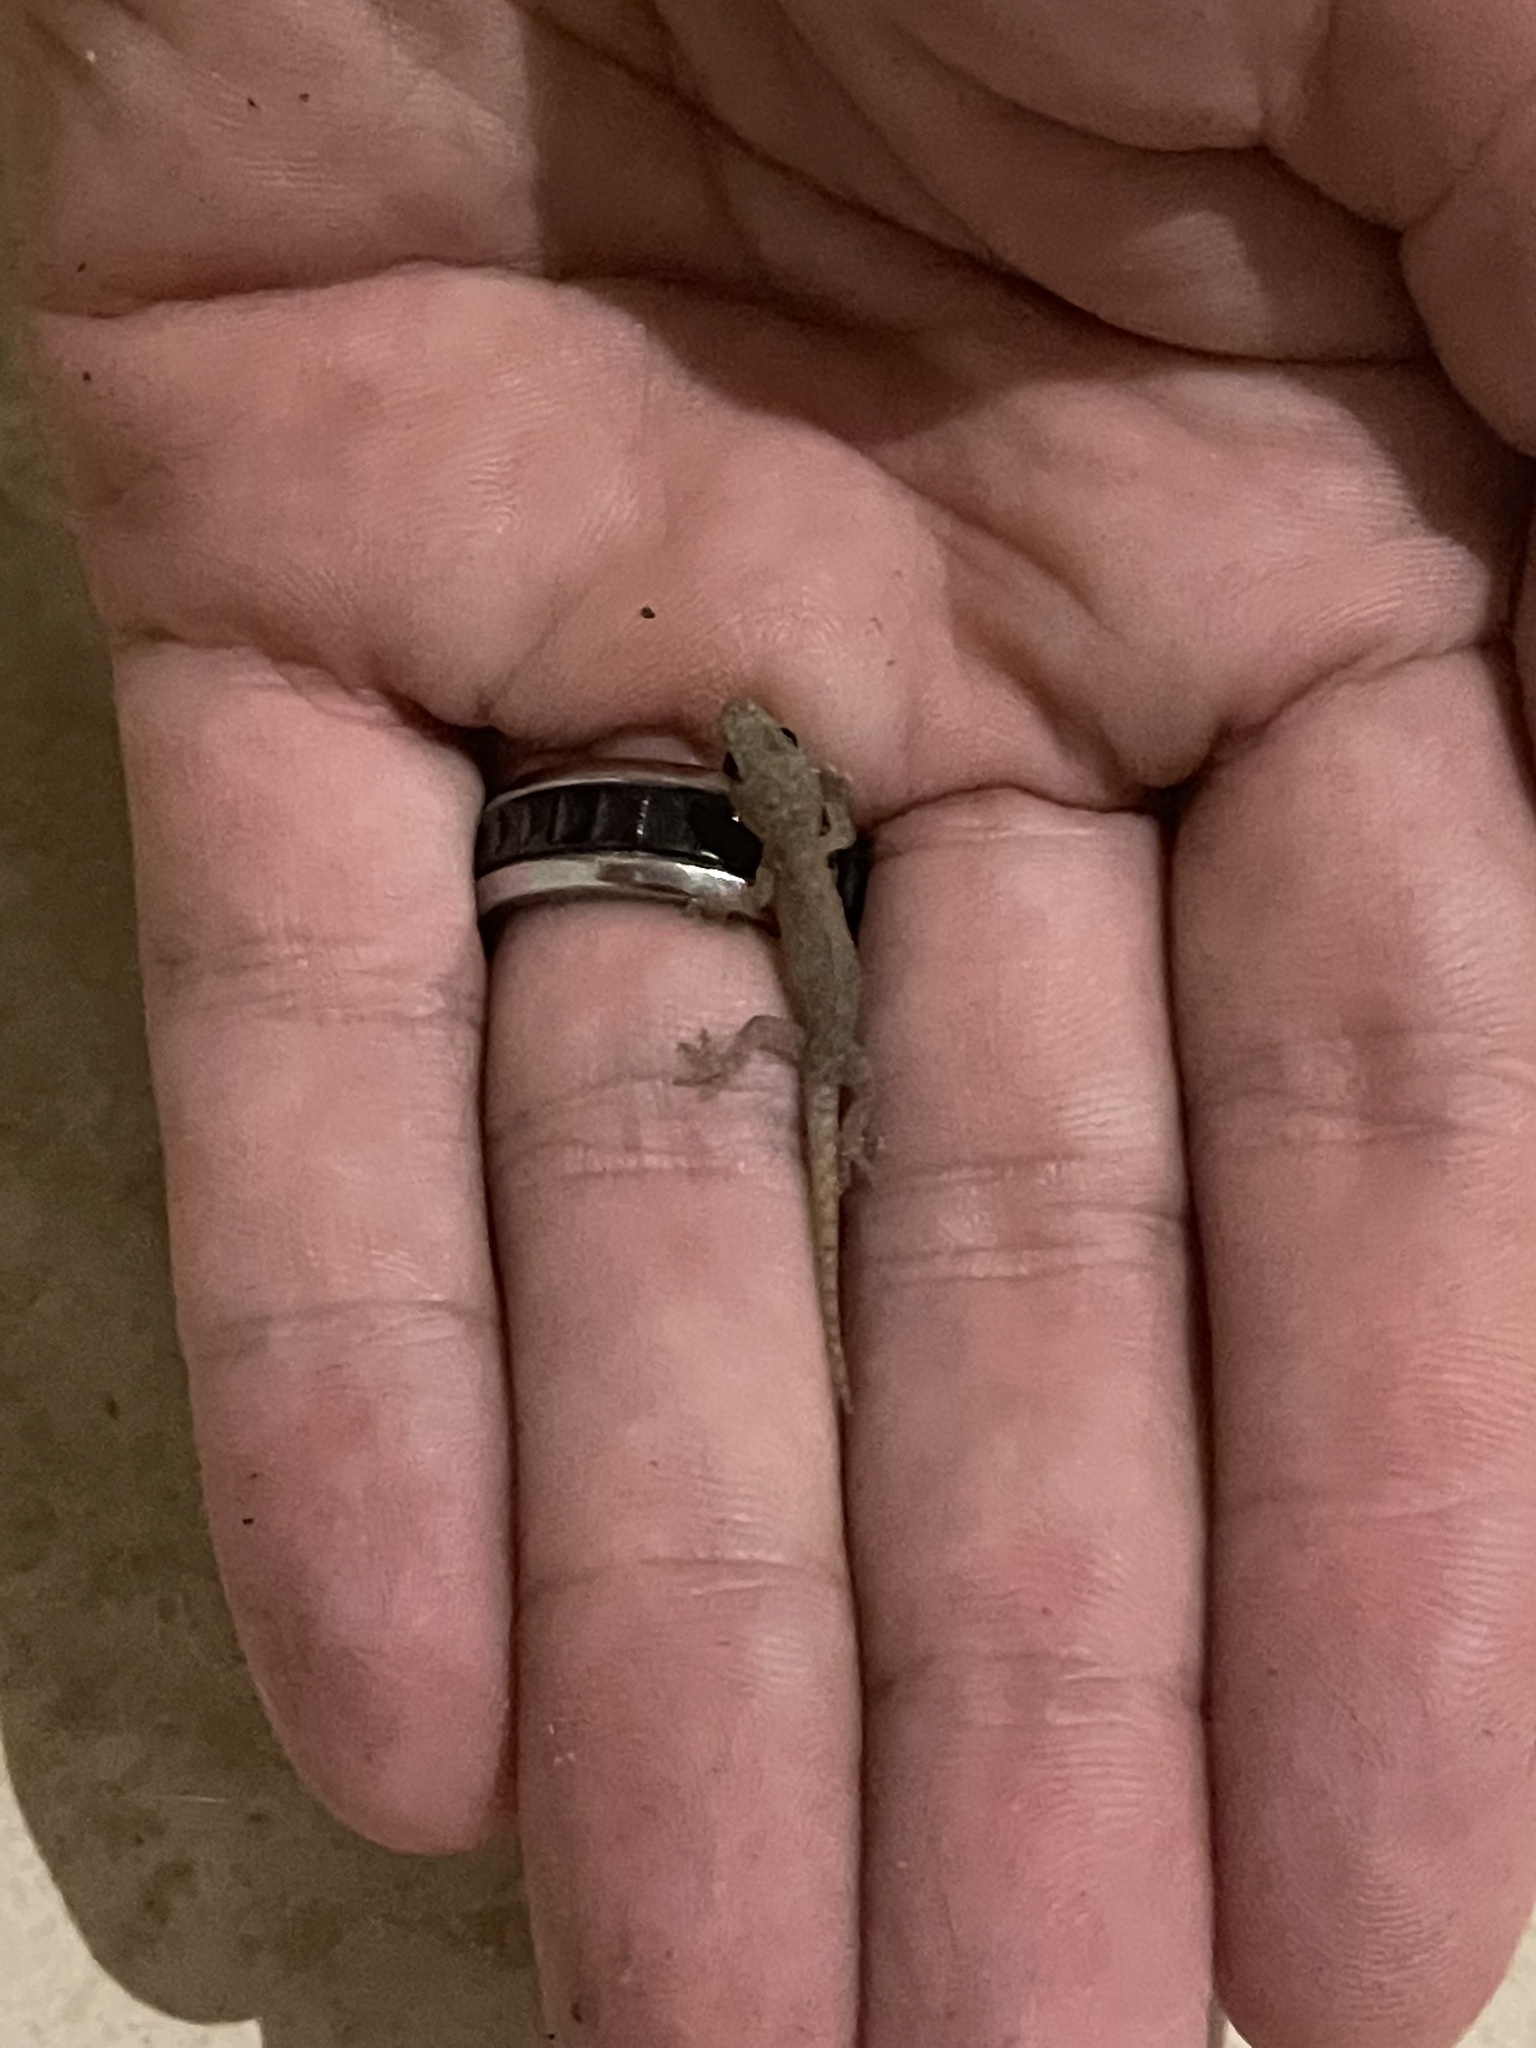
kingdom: Animalia
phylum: Chordata
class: Squamata
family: Gekkonidae
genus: Hemidactylus
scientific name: Hemidactylus frenatus
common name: Common house gecko
